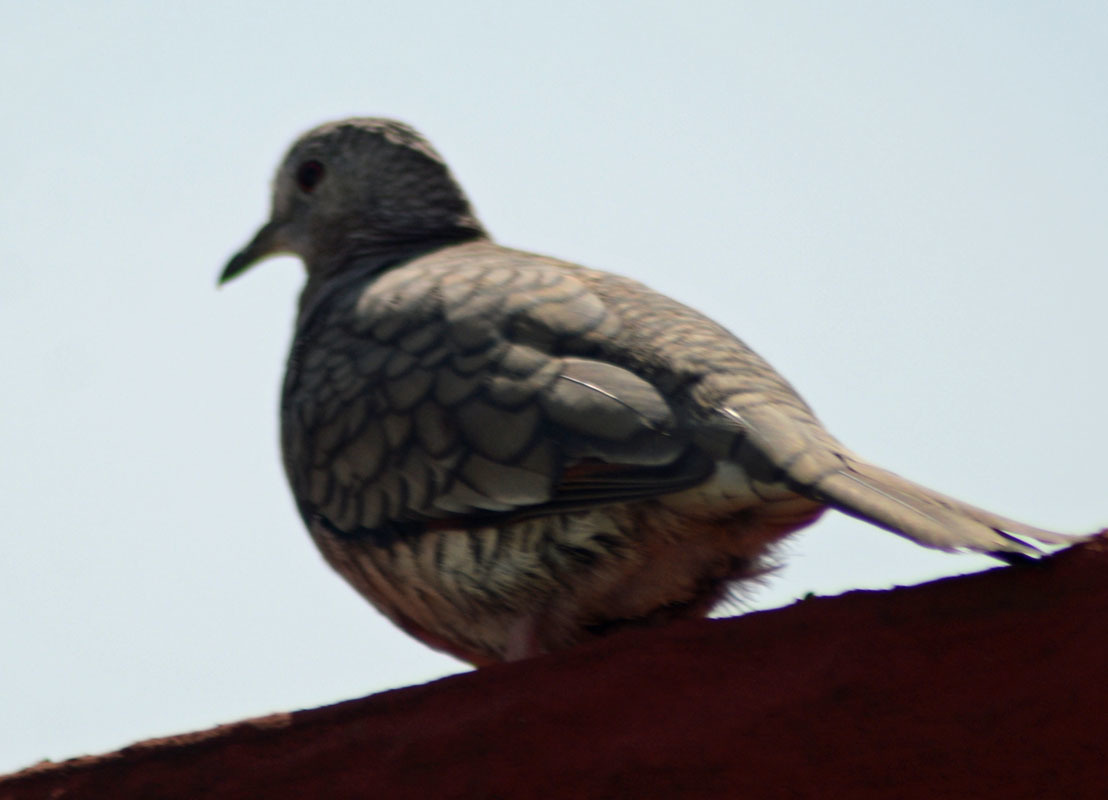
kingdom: Animalia
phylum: Chordata
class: Aves
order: Columbiformes
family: Columbidae
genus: Columbina
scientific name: Columbina inca
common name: Inca dove
